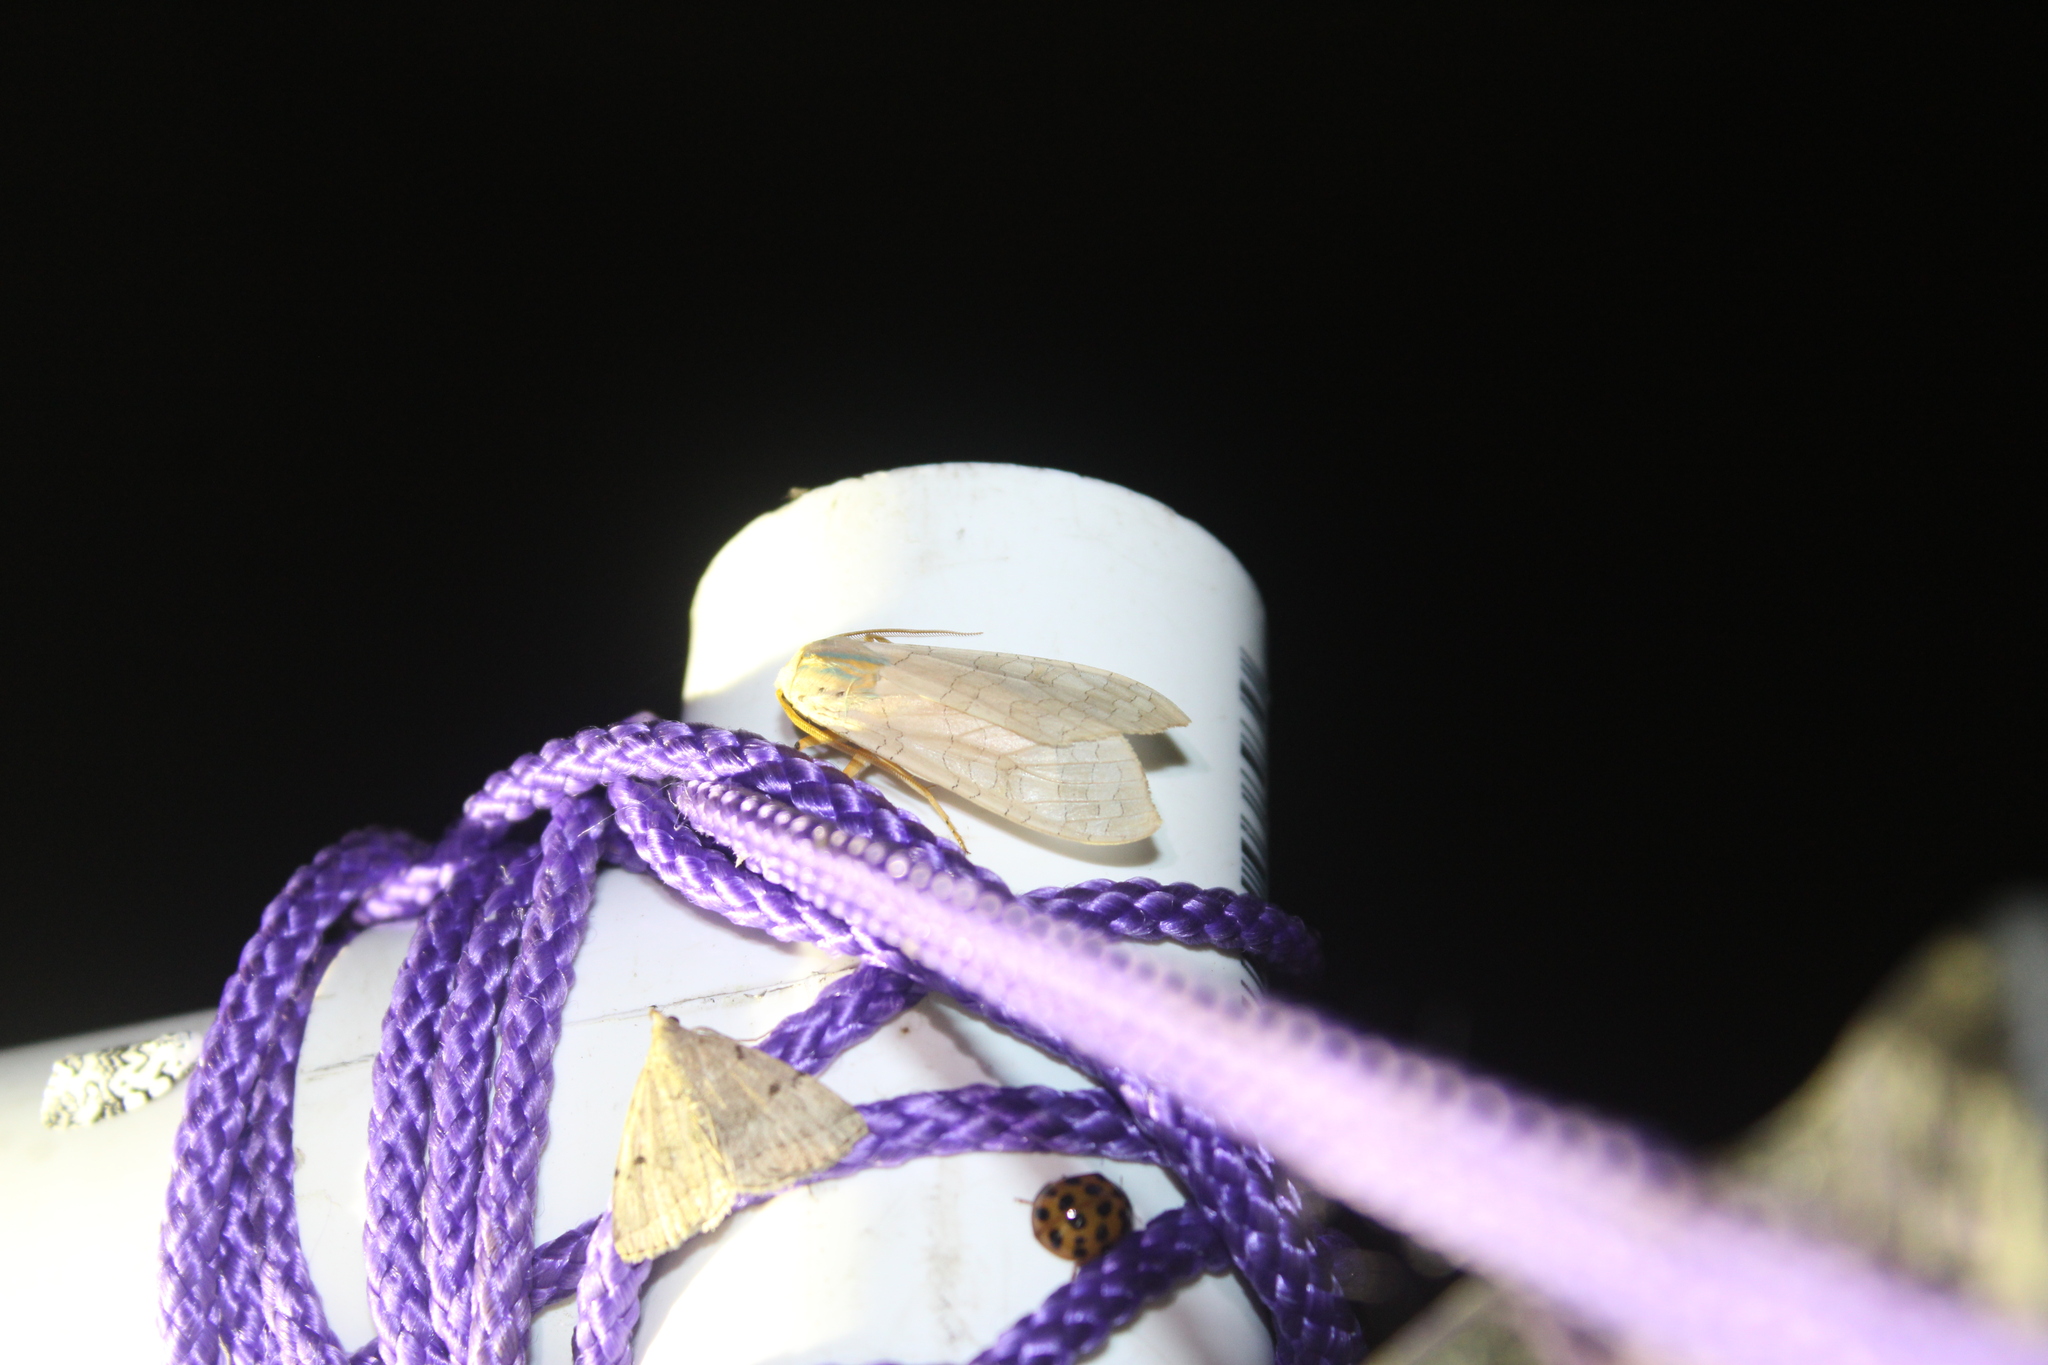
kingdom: Animalia
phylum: Arthropoda
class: Insecta
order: Lepidoptera
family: Erebidae
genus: Halysidota
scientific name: Halysidota
